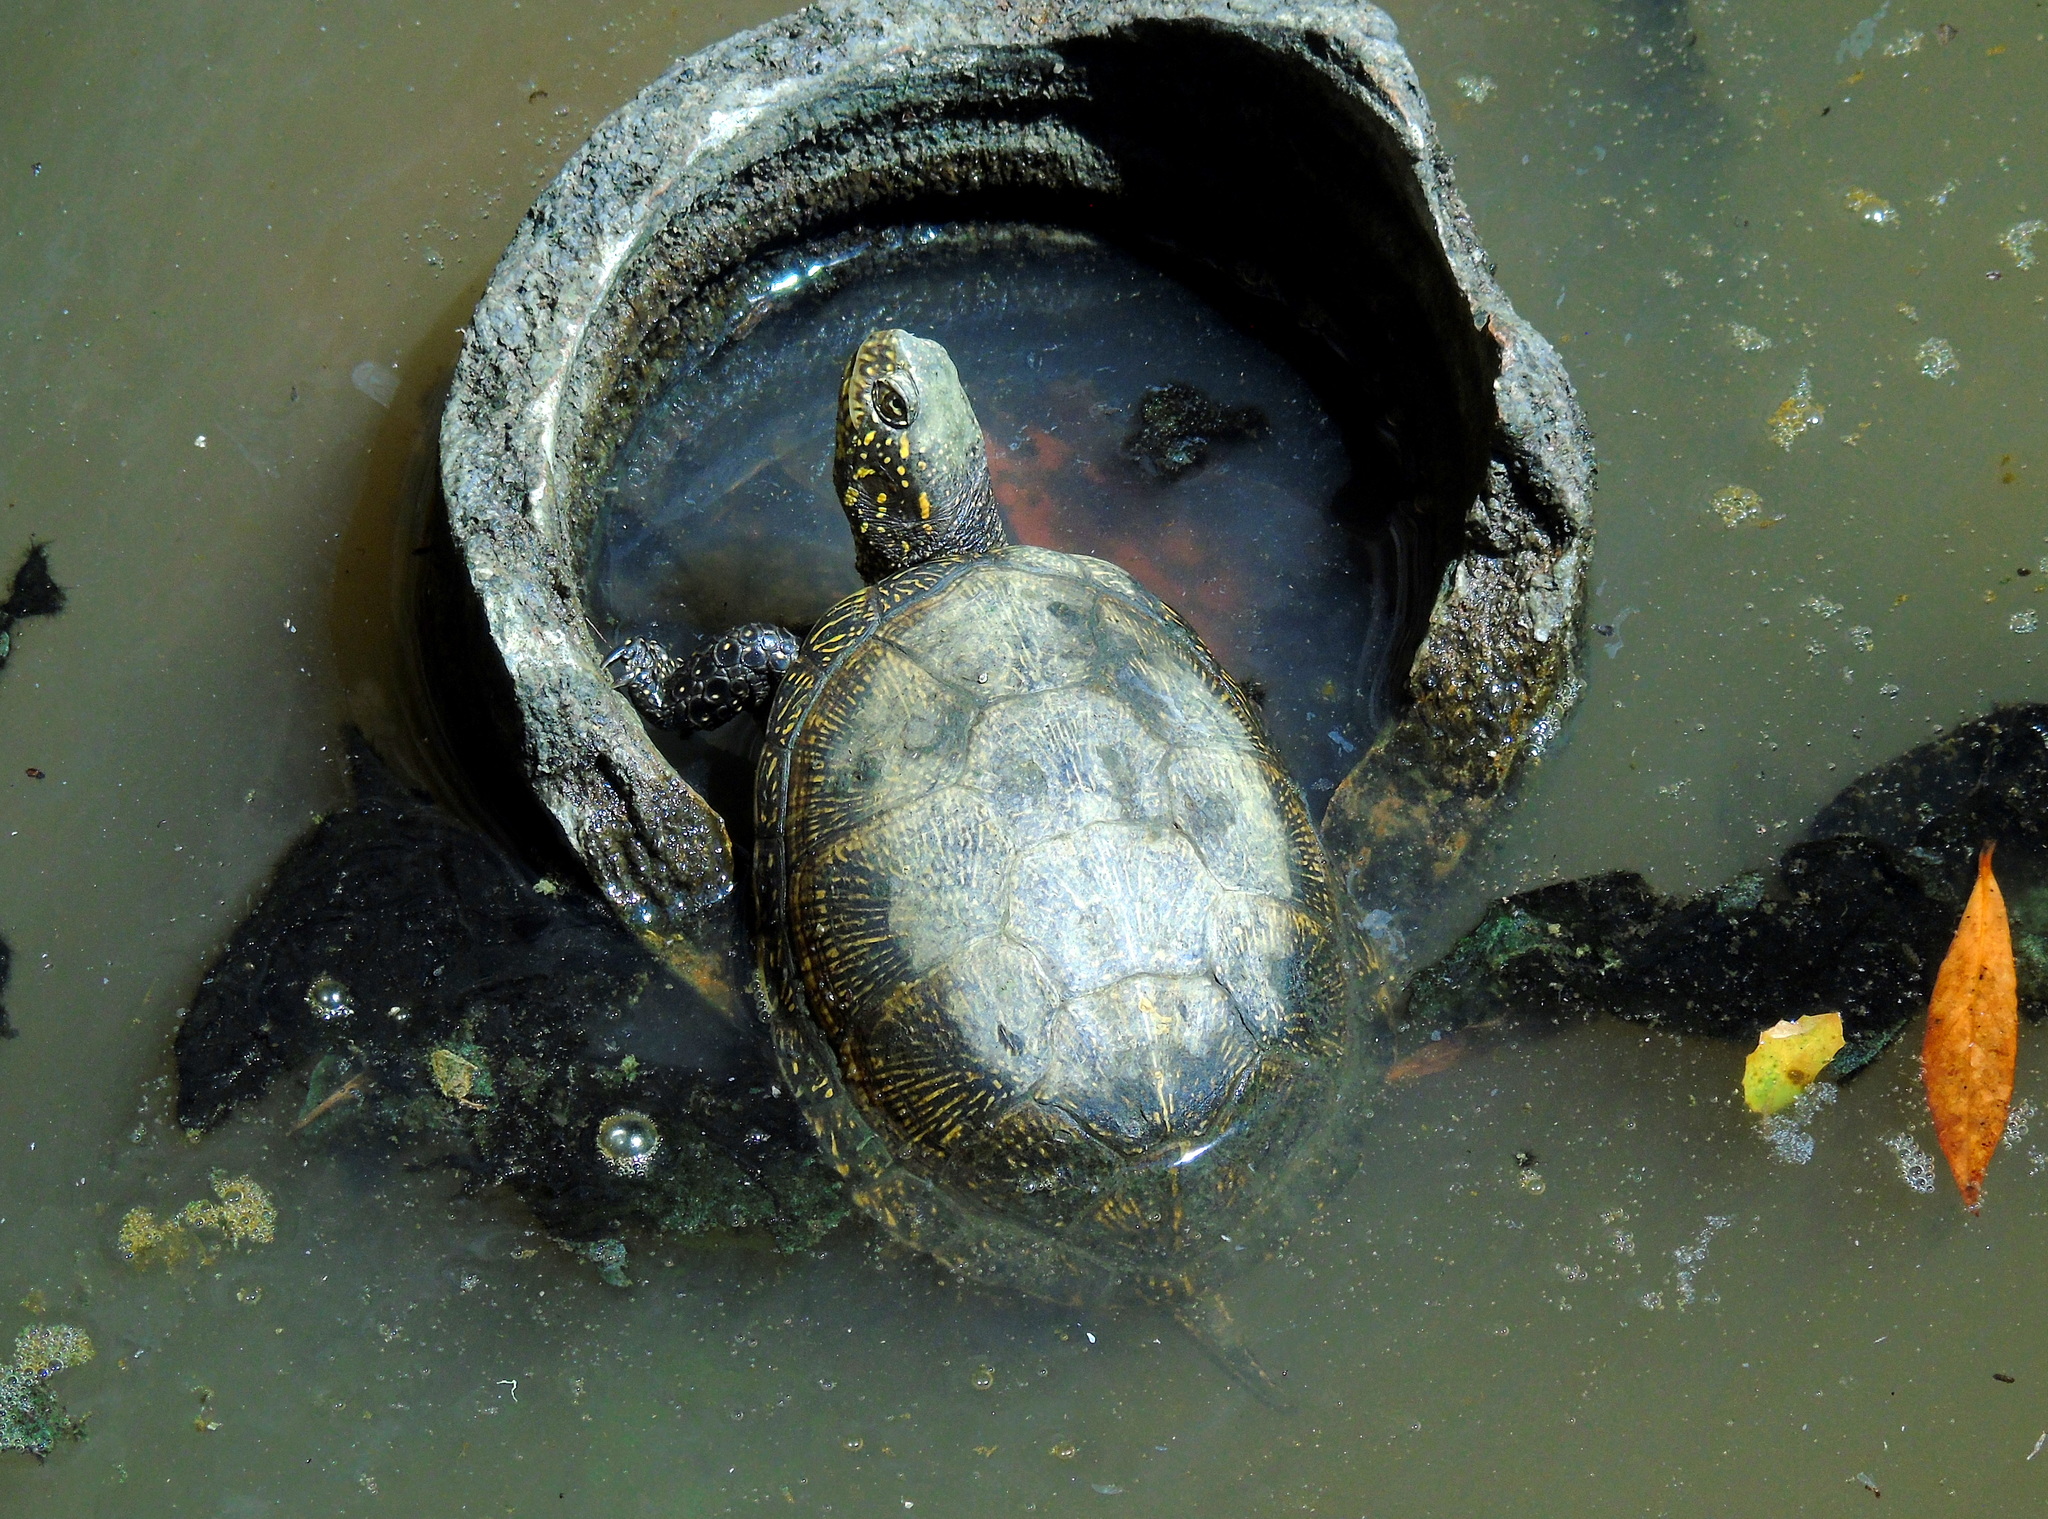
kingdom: Animalia
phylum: Chordata
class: Testudines
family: Emydidae
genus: Emys
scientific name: Emys orbicularis
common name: European pond turtle
